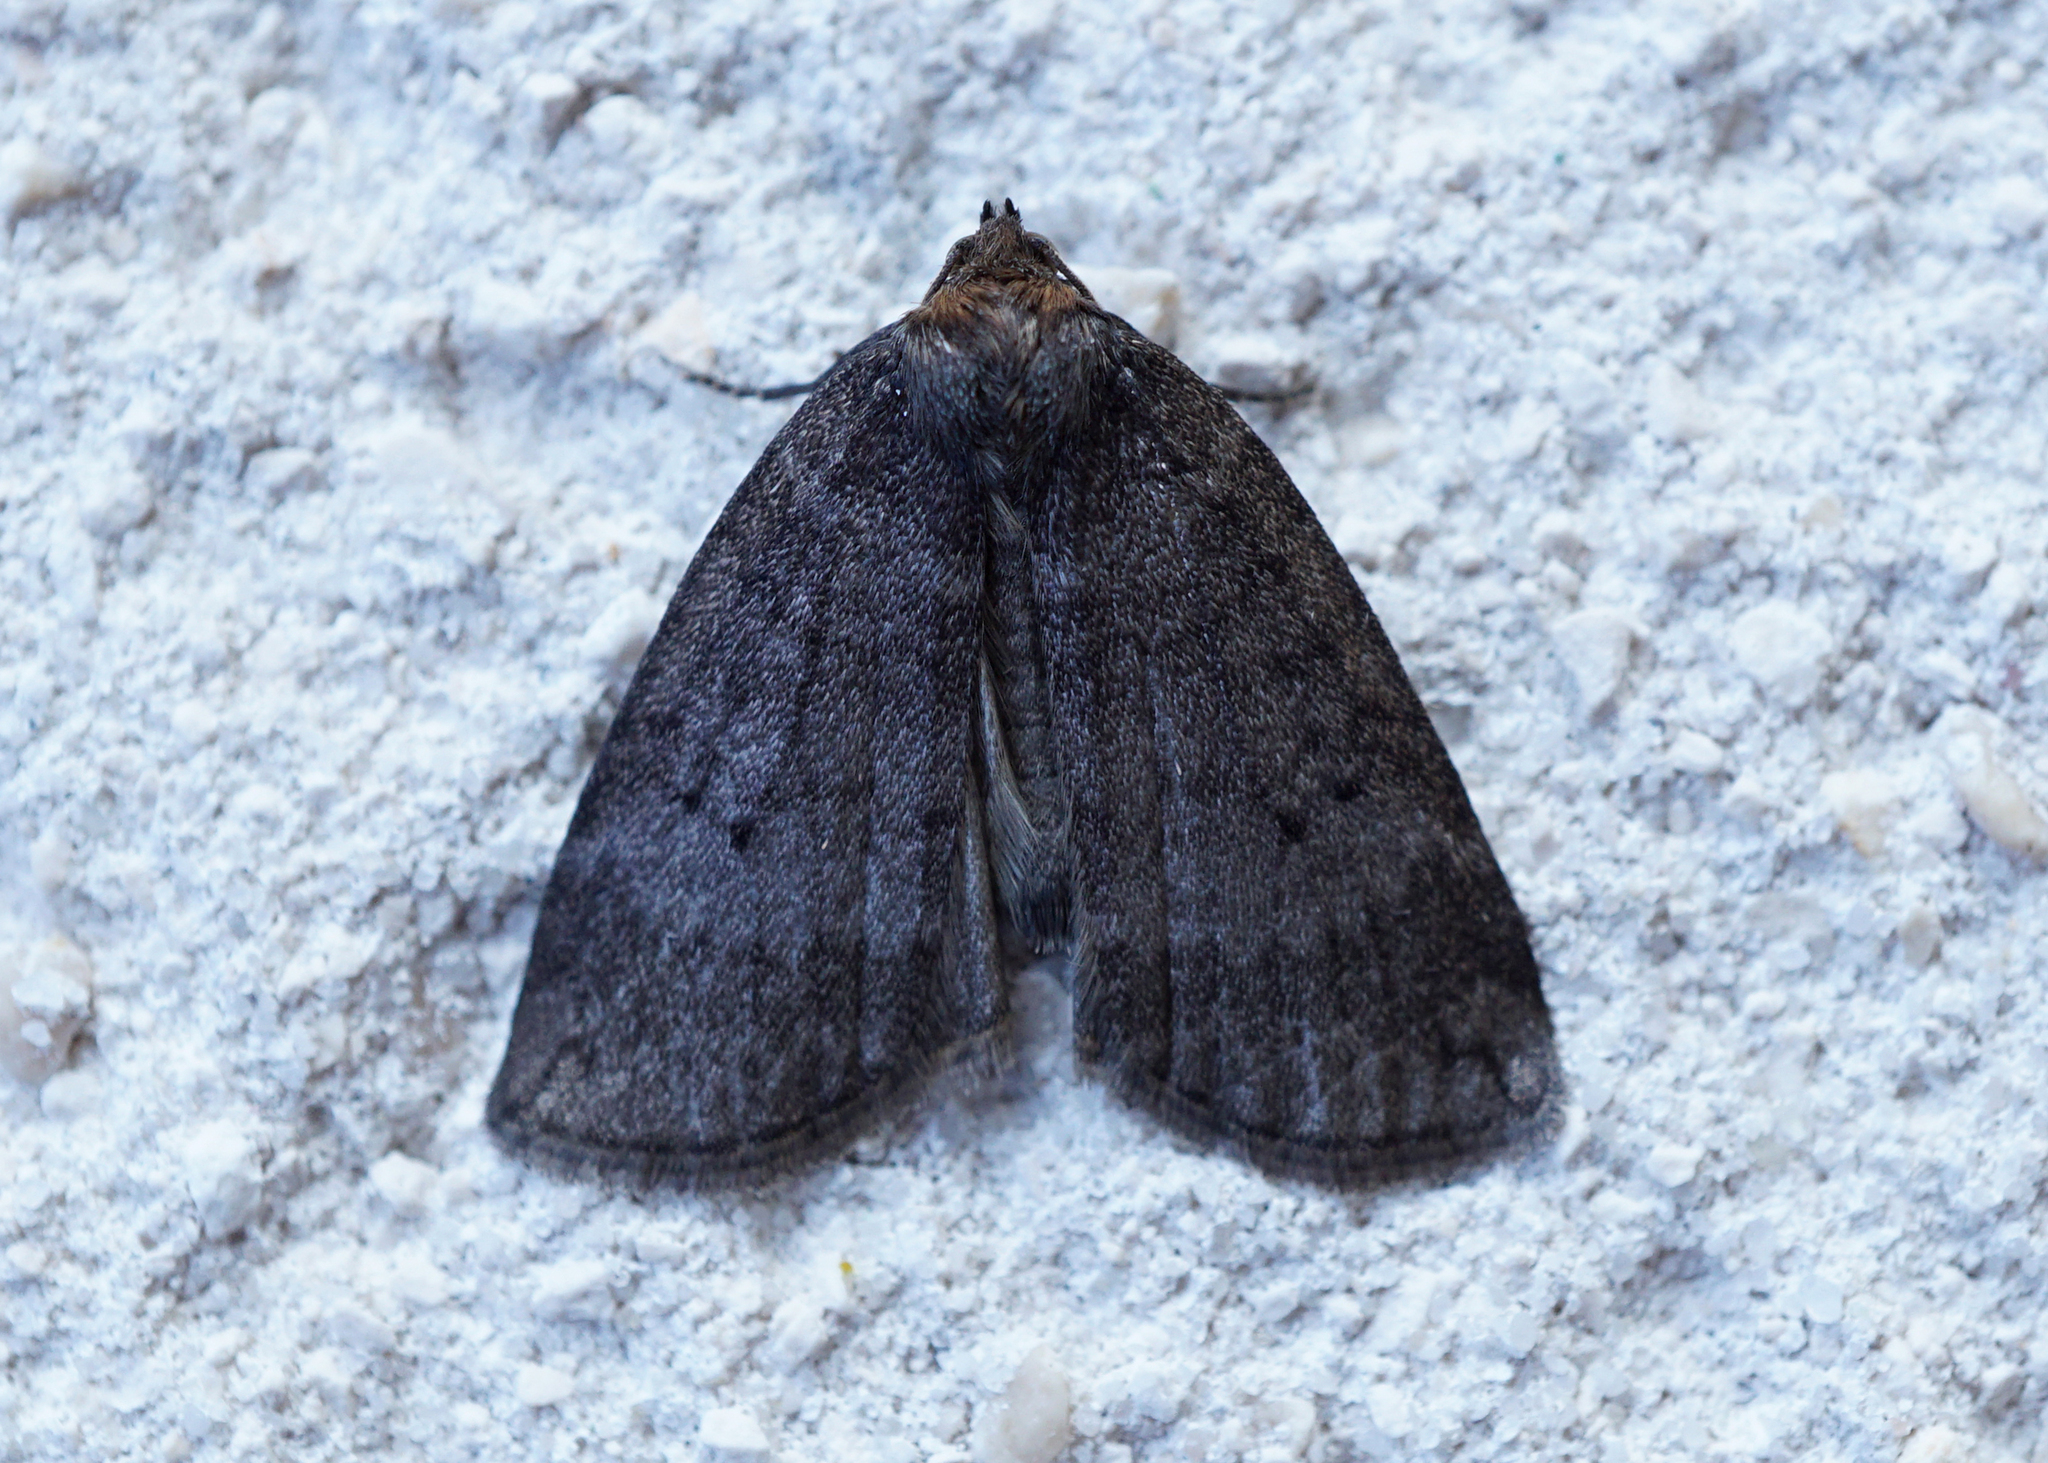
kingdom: Animalia
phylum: Arthropoda
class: Insecta
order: Lepidoptera
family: Drepanidae
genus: Ochropacha
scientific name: Ochropacha duplaris
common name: Common lutestring
